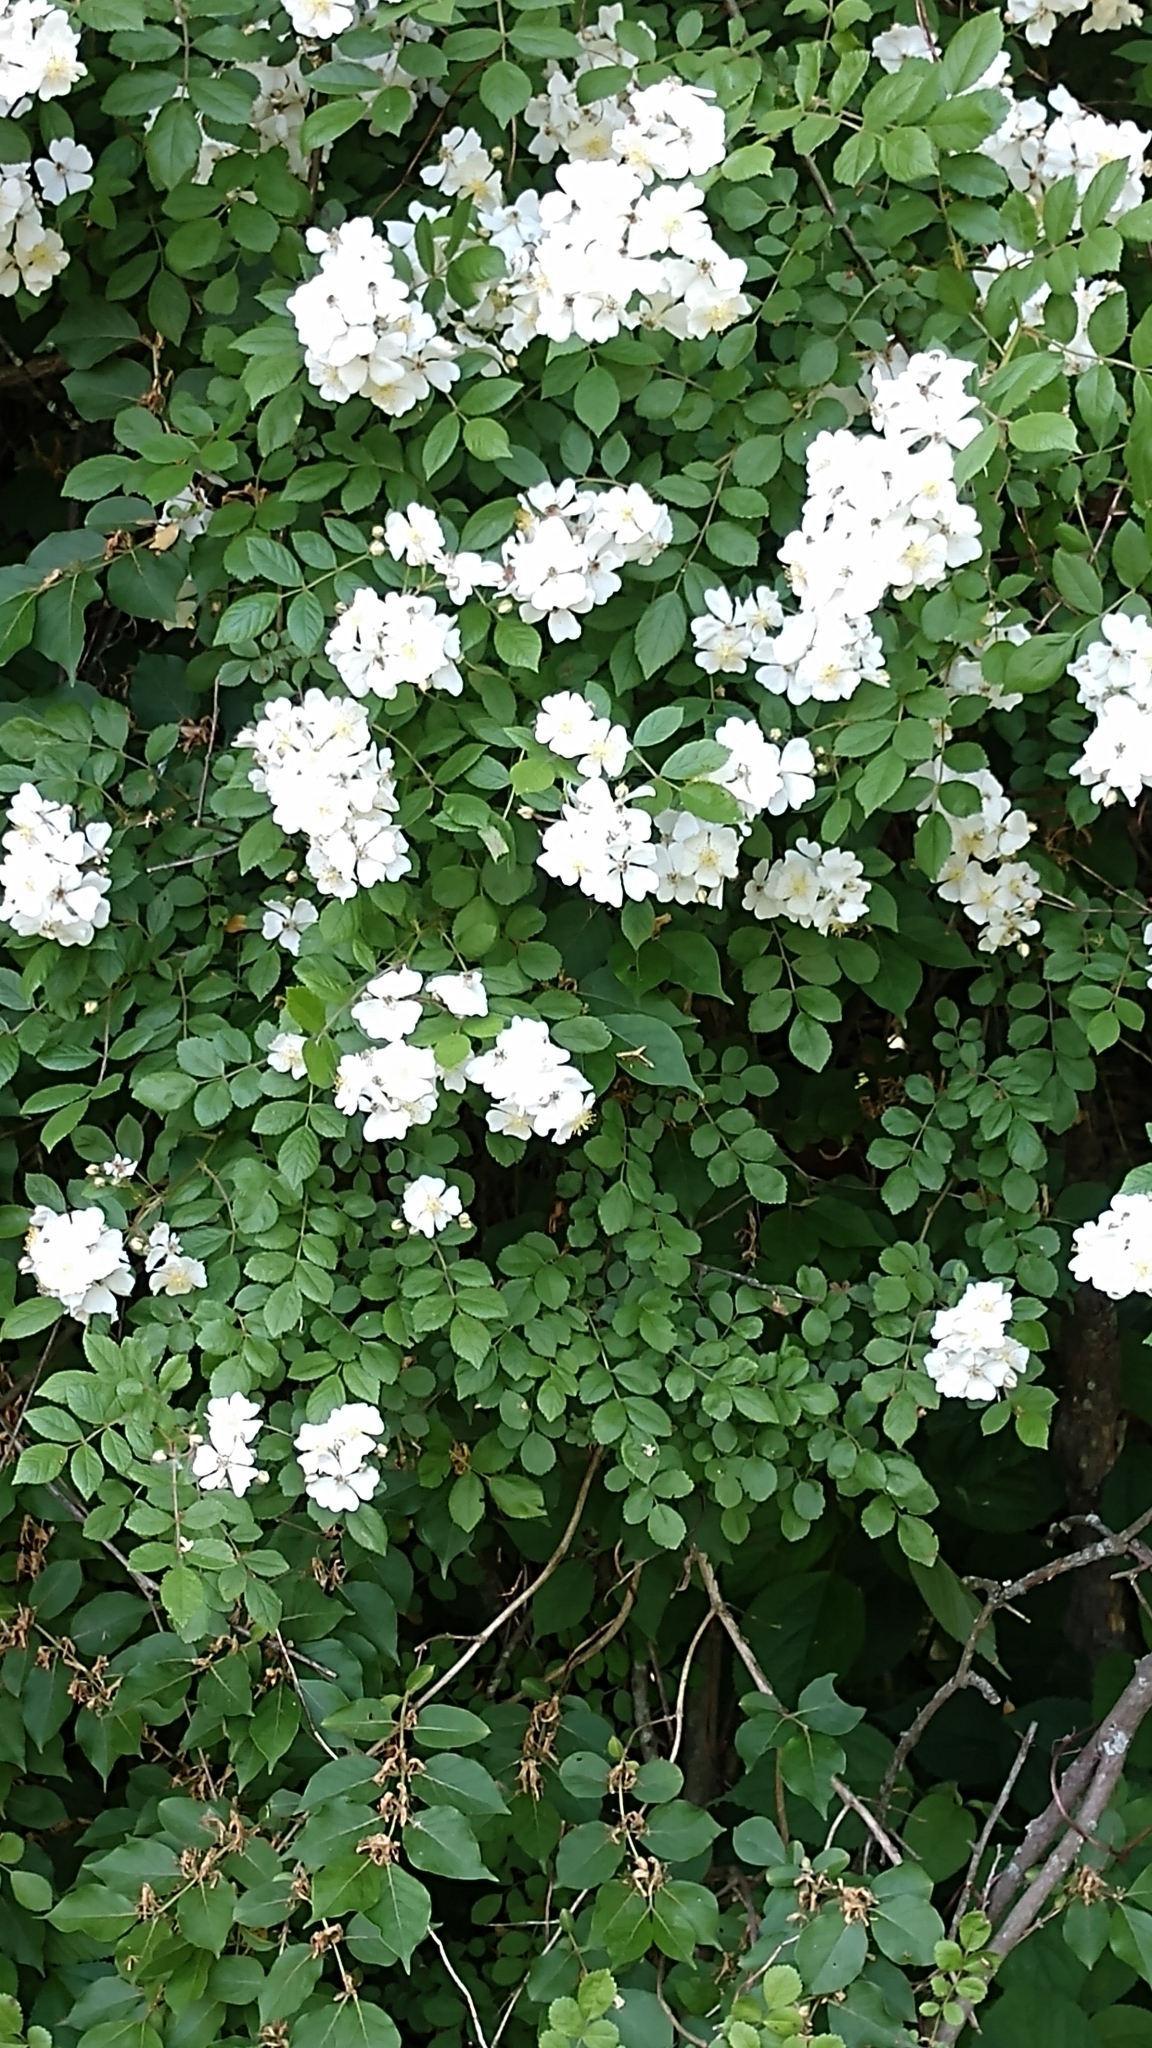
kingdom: Plantae
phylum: Tracheophyta
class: Magnoliopsida
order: Rosales
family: Rosaceae
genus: Rosa
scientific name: Rosa multiflora
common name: Multiflora rose
